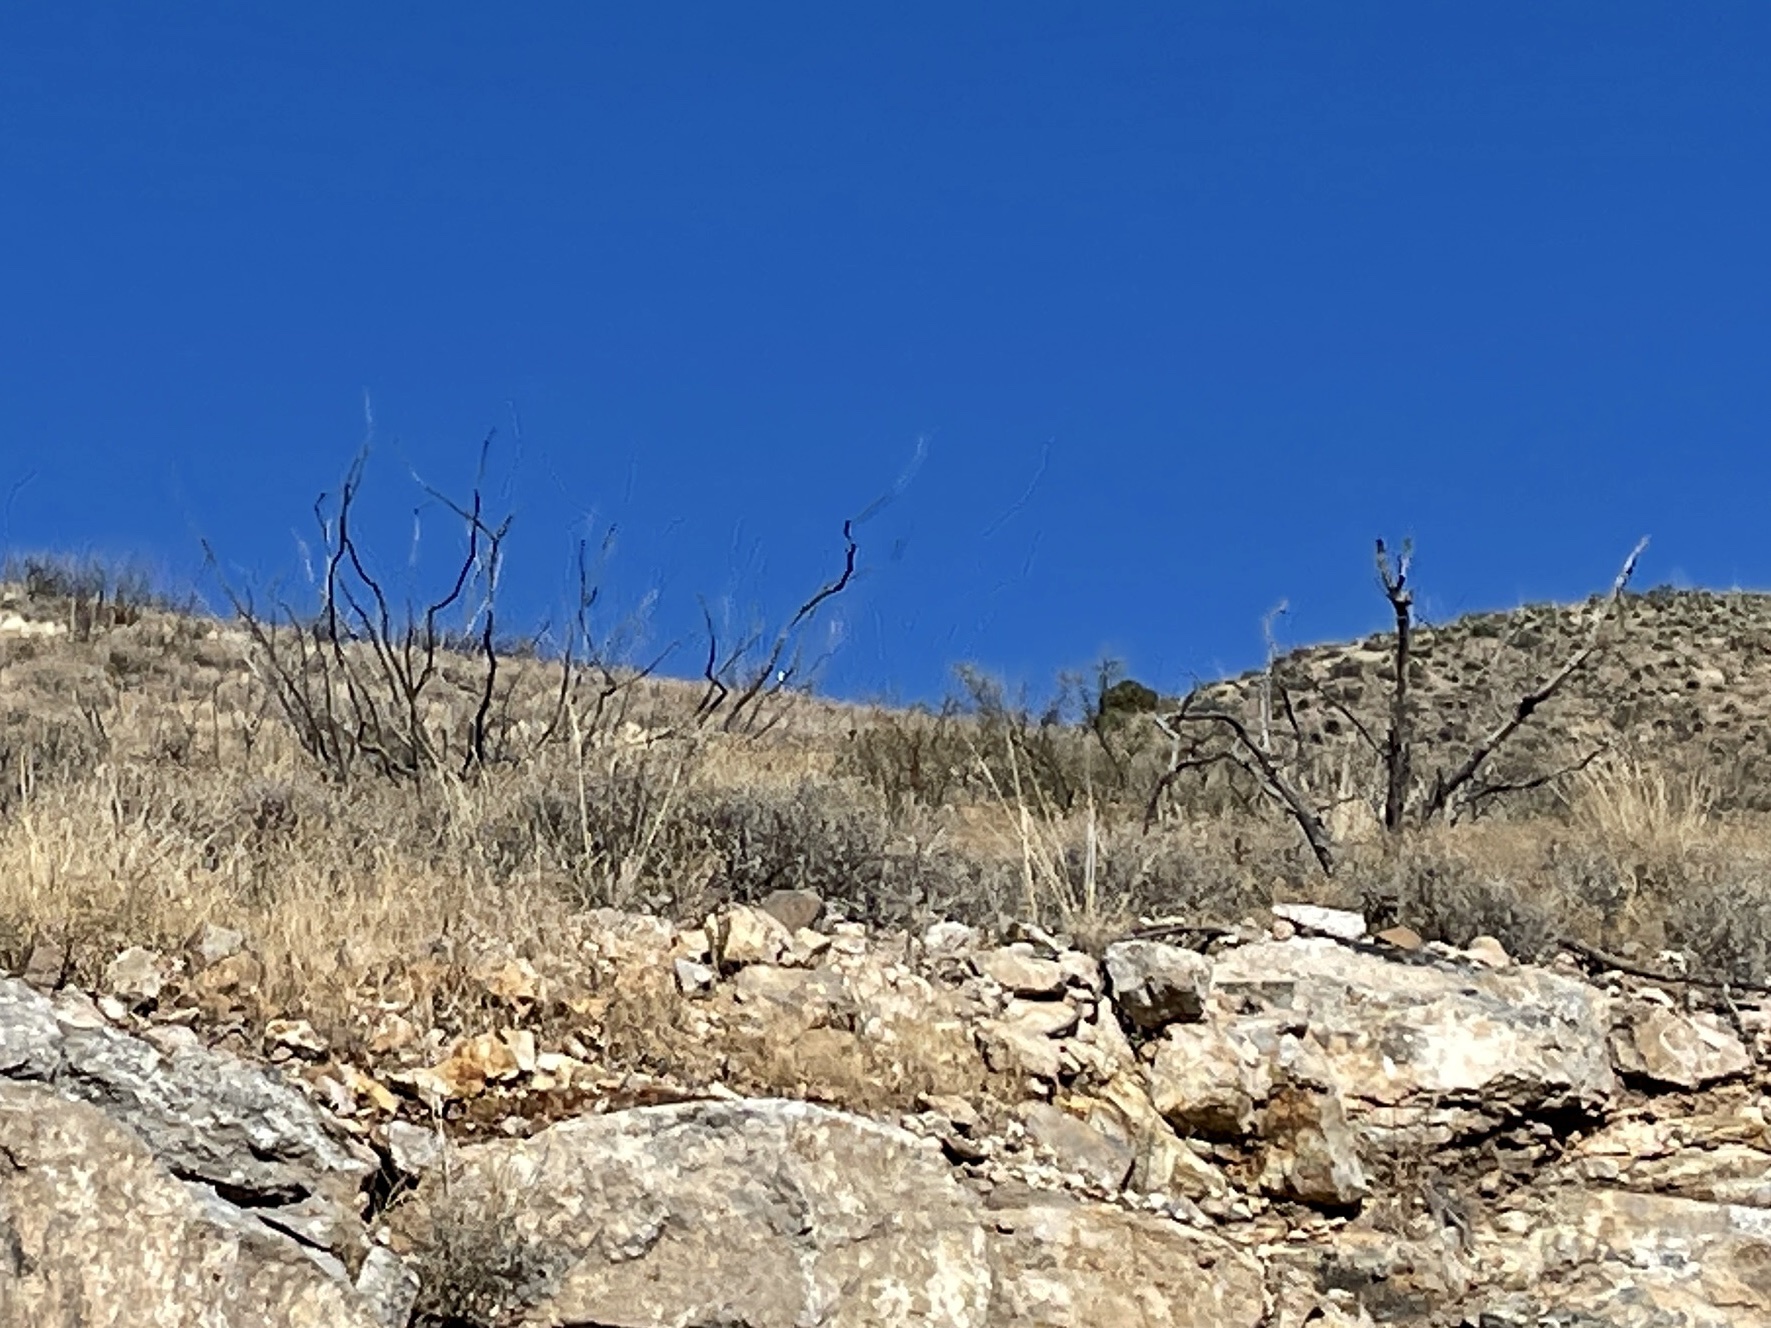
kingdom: Plantae
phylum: Tracheophyta
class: Magnoliopsida
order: Ericales
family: Fouquieriaceae
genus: Fouquieria
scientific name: Fouquieria splendens
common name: Vine-cactus
